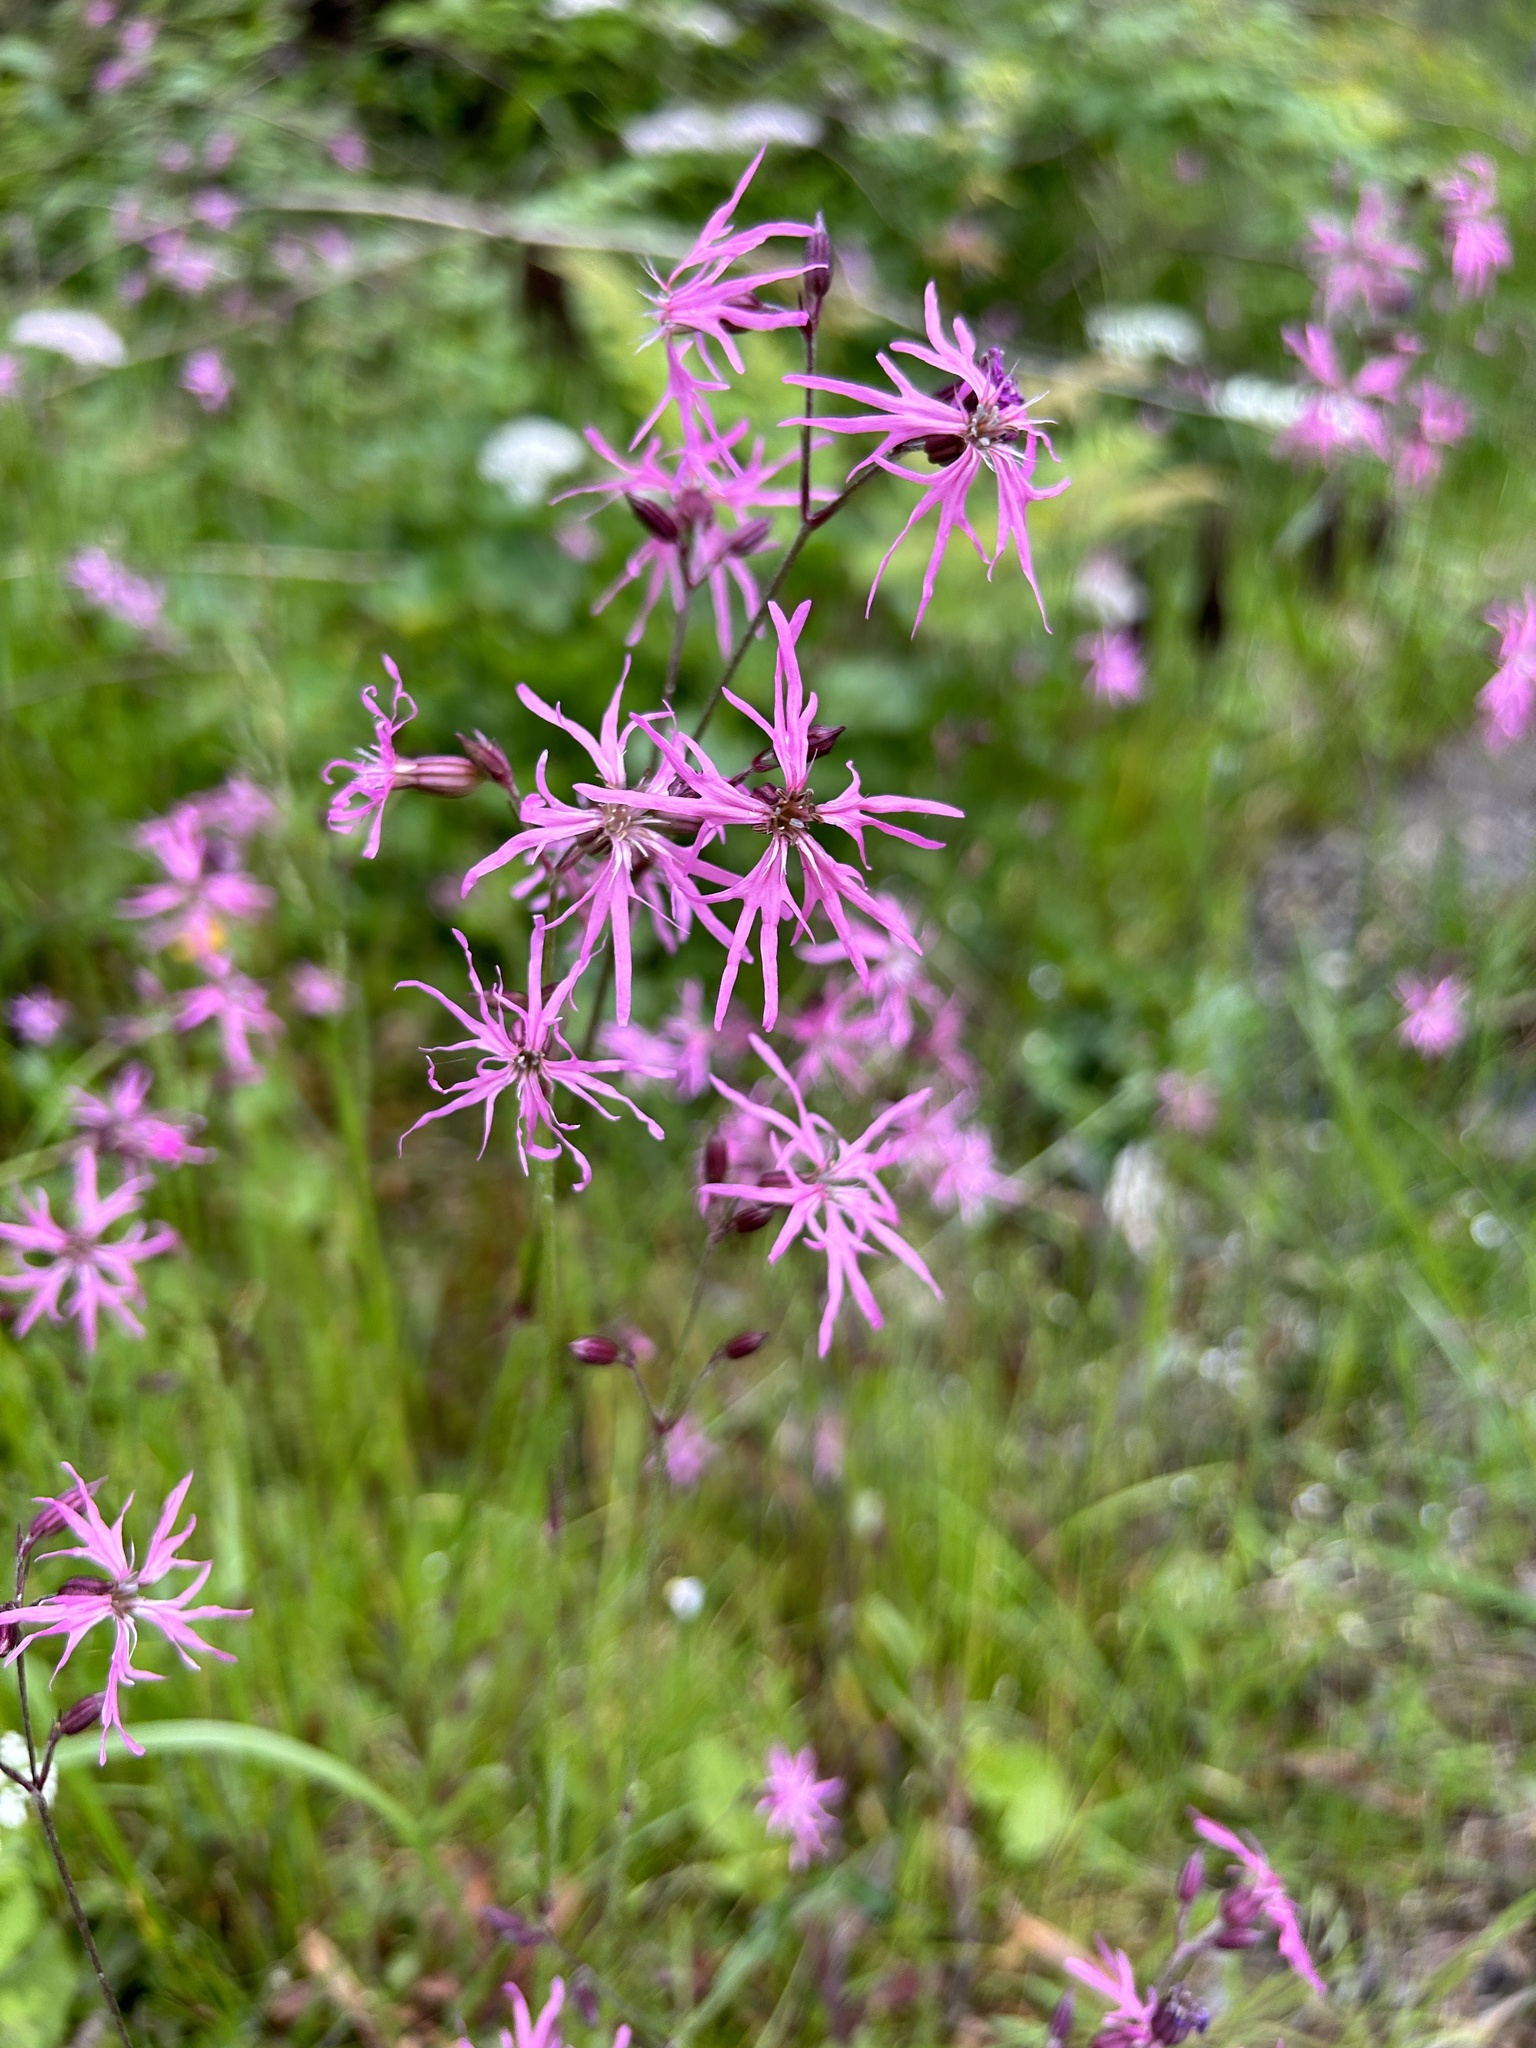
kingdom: Plantae
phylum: Tracheophyta
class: Magnoliopsida
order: Caryophyllales
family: Caryophyllaceae
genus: Silene
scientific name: Silene flos-cuculi
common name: Ragged-robin
